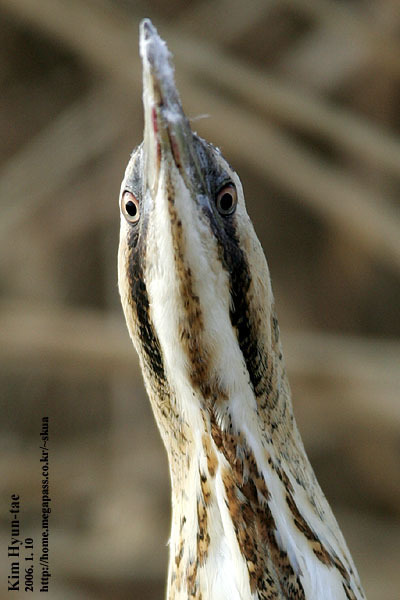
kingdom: Animalia
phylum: Chordata
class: Aves
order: Pelecaniformes
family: Ardeidae
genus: Botaurus
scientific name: Botaurus stellaris
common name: Eurasian bittern
